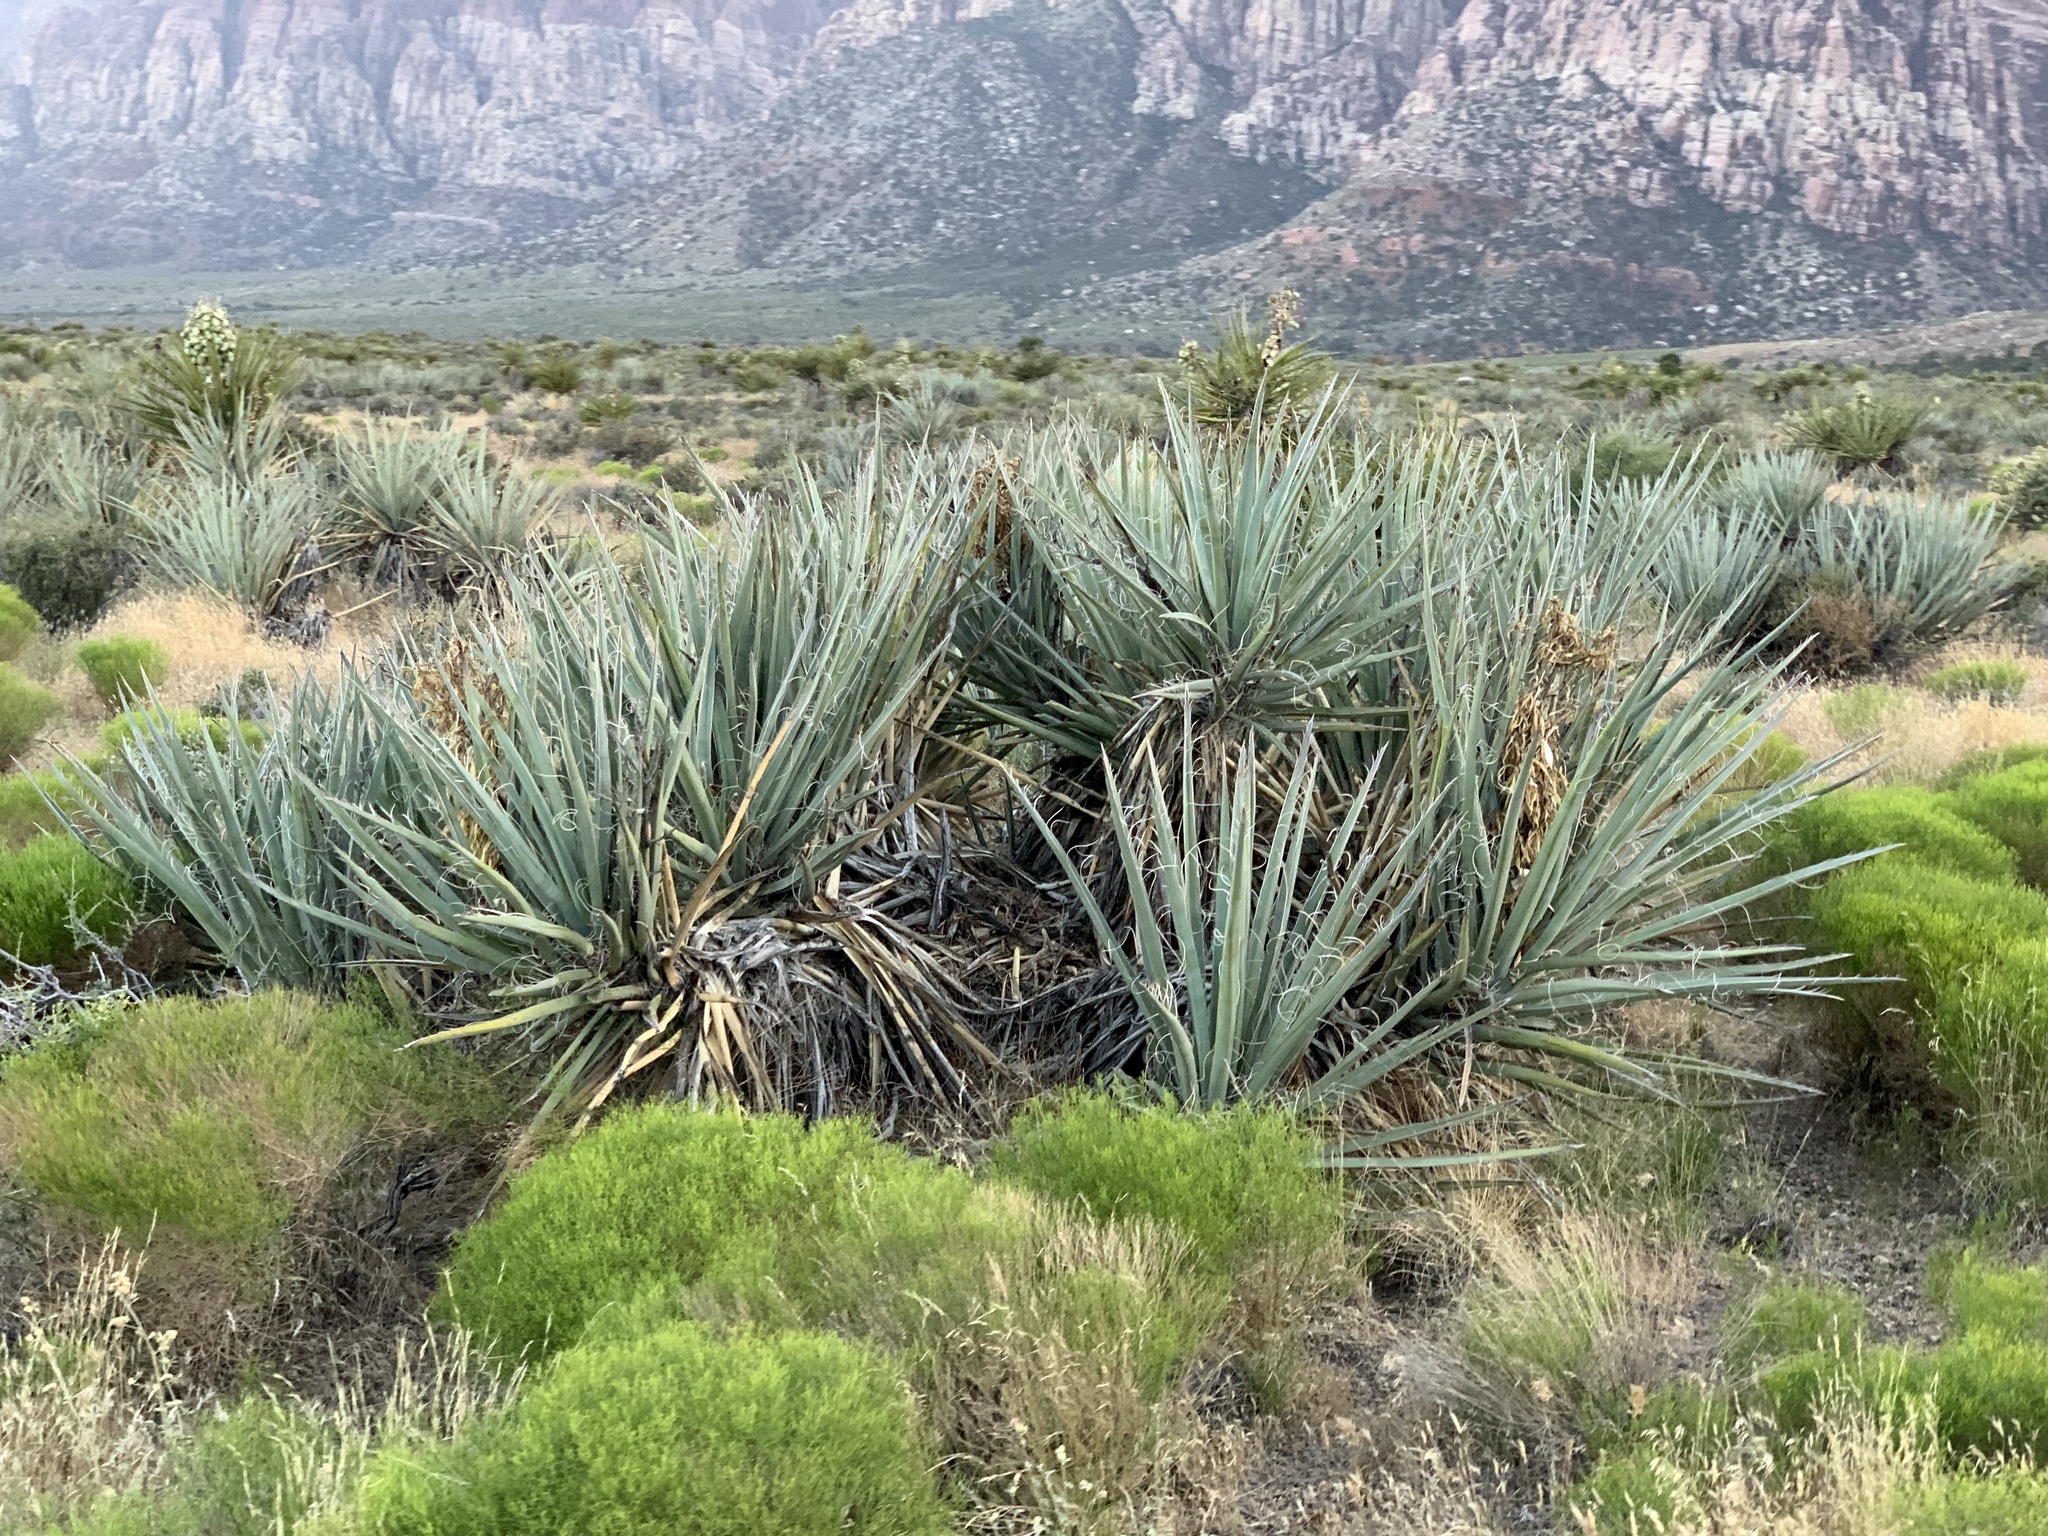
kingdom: Plantae
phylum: Tracheophyta
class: Liliopsida
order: Asparagales
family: Asparagaceae
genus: Yucca
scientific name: Yucca baccata
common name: Banana yucca
